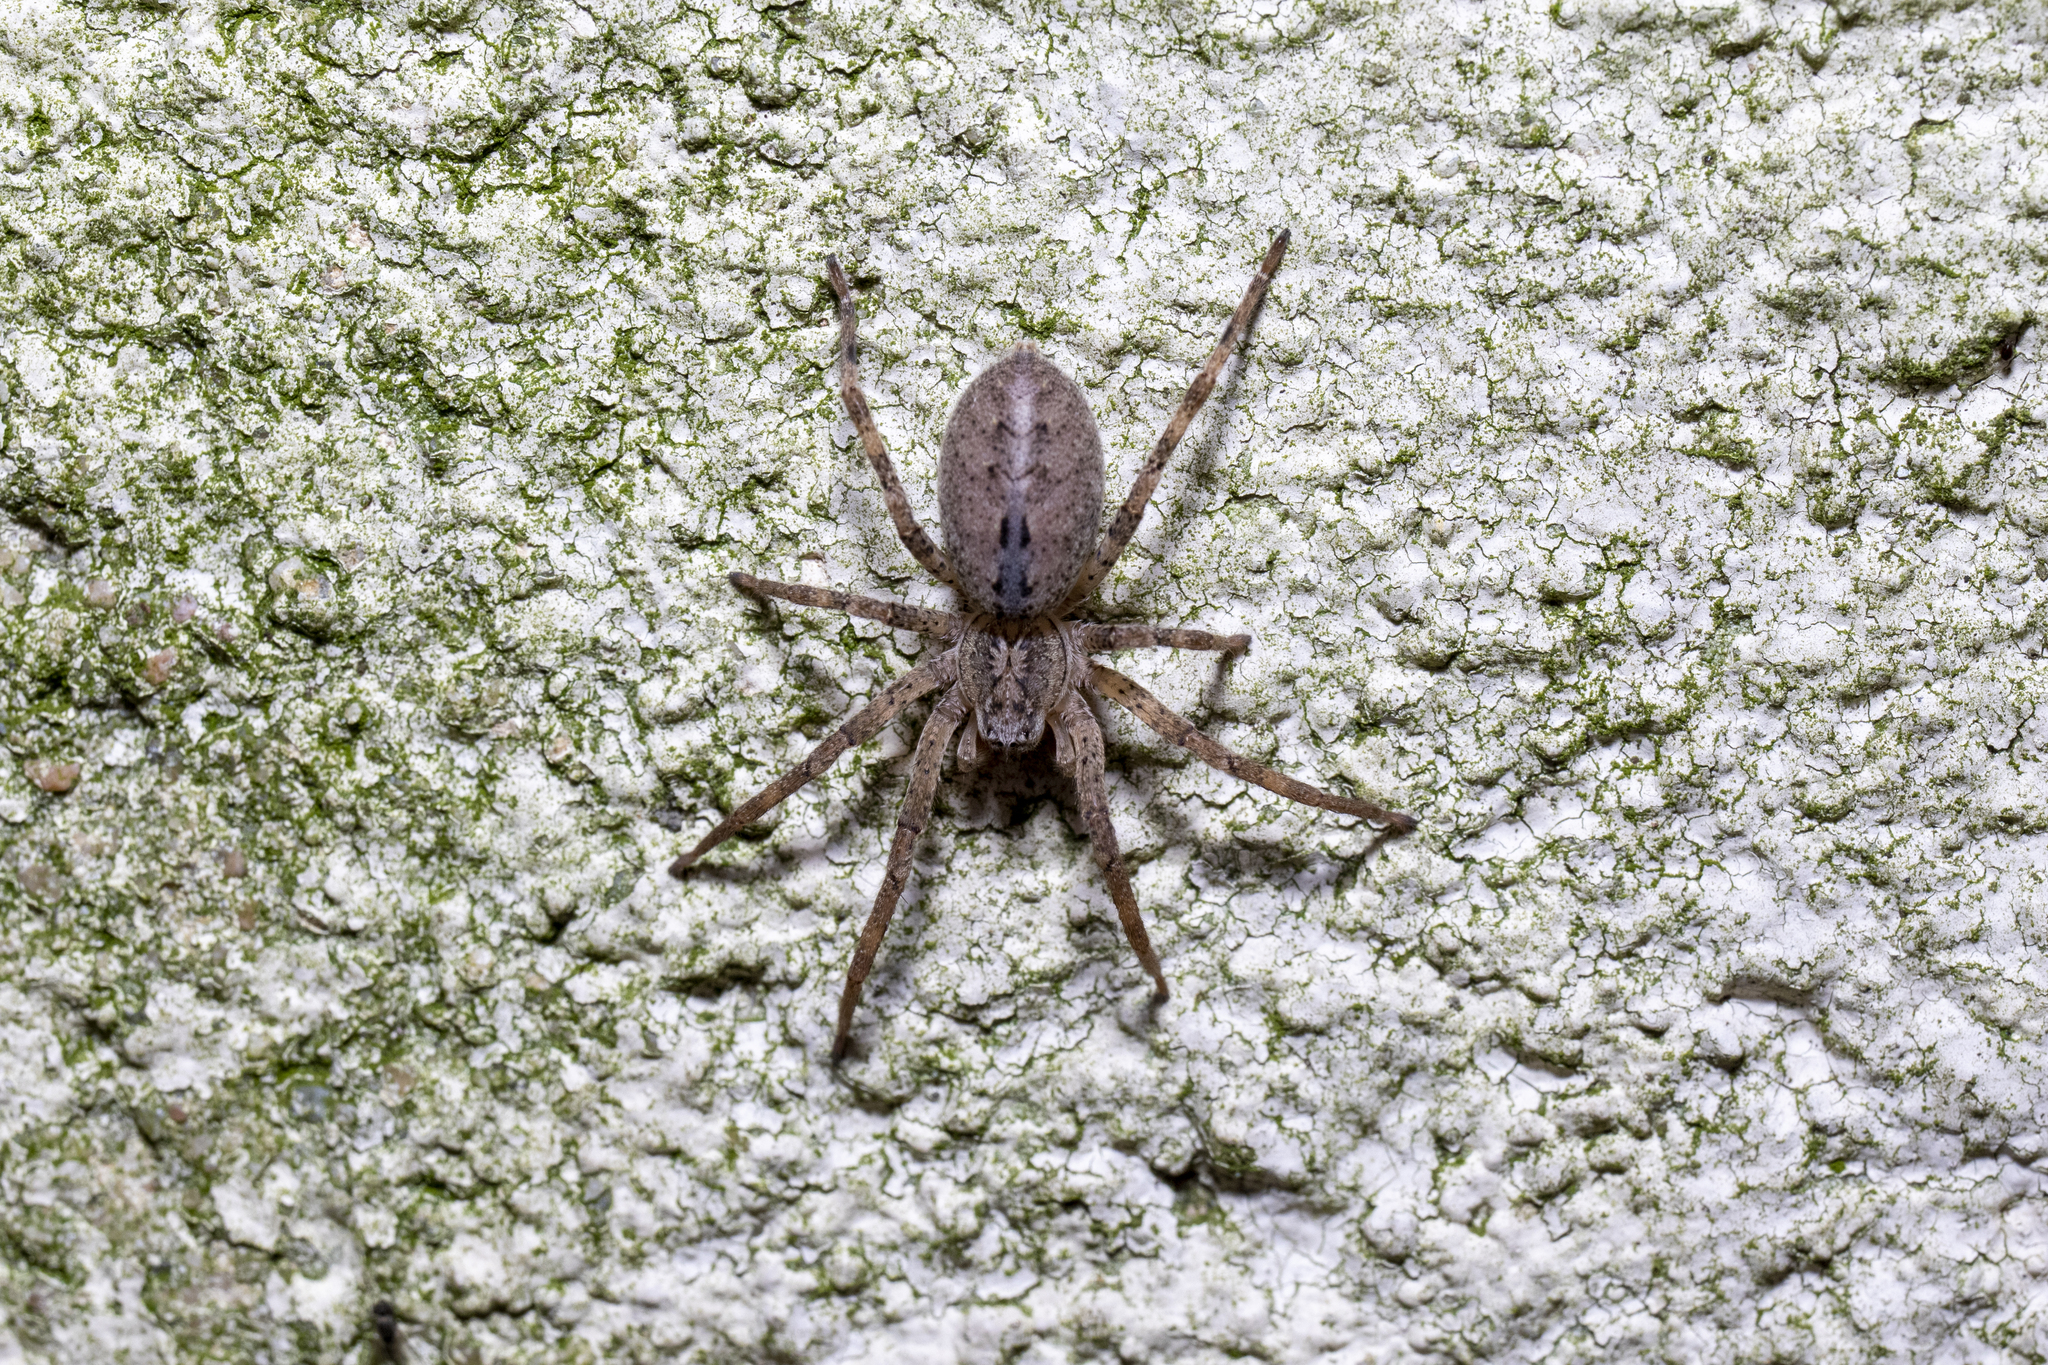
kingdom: Animalia
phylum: Arthropoda
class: Arachnida
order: Araneae
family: Zoropsidae
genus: Zoropsis
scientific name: Zoropsis spinimana
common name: Zoropsid spider
